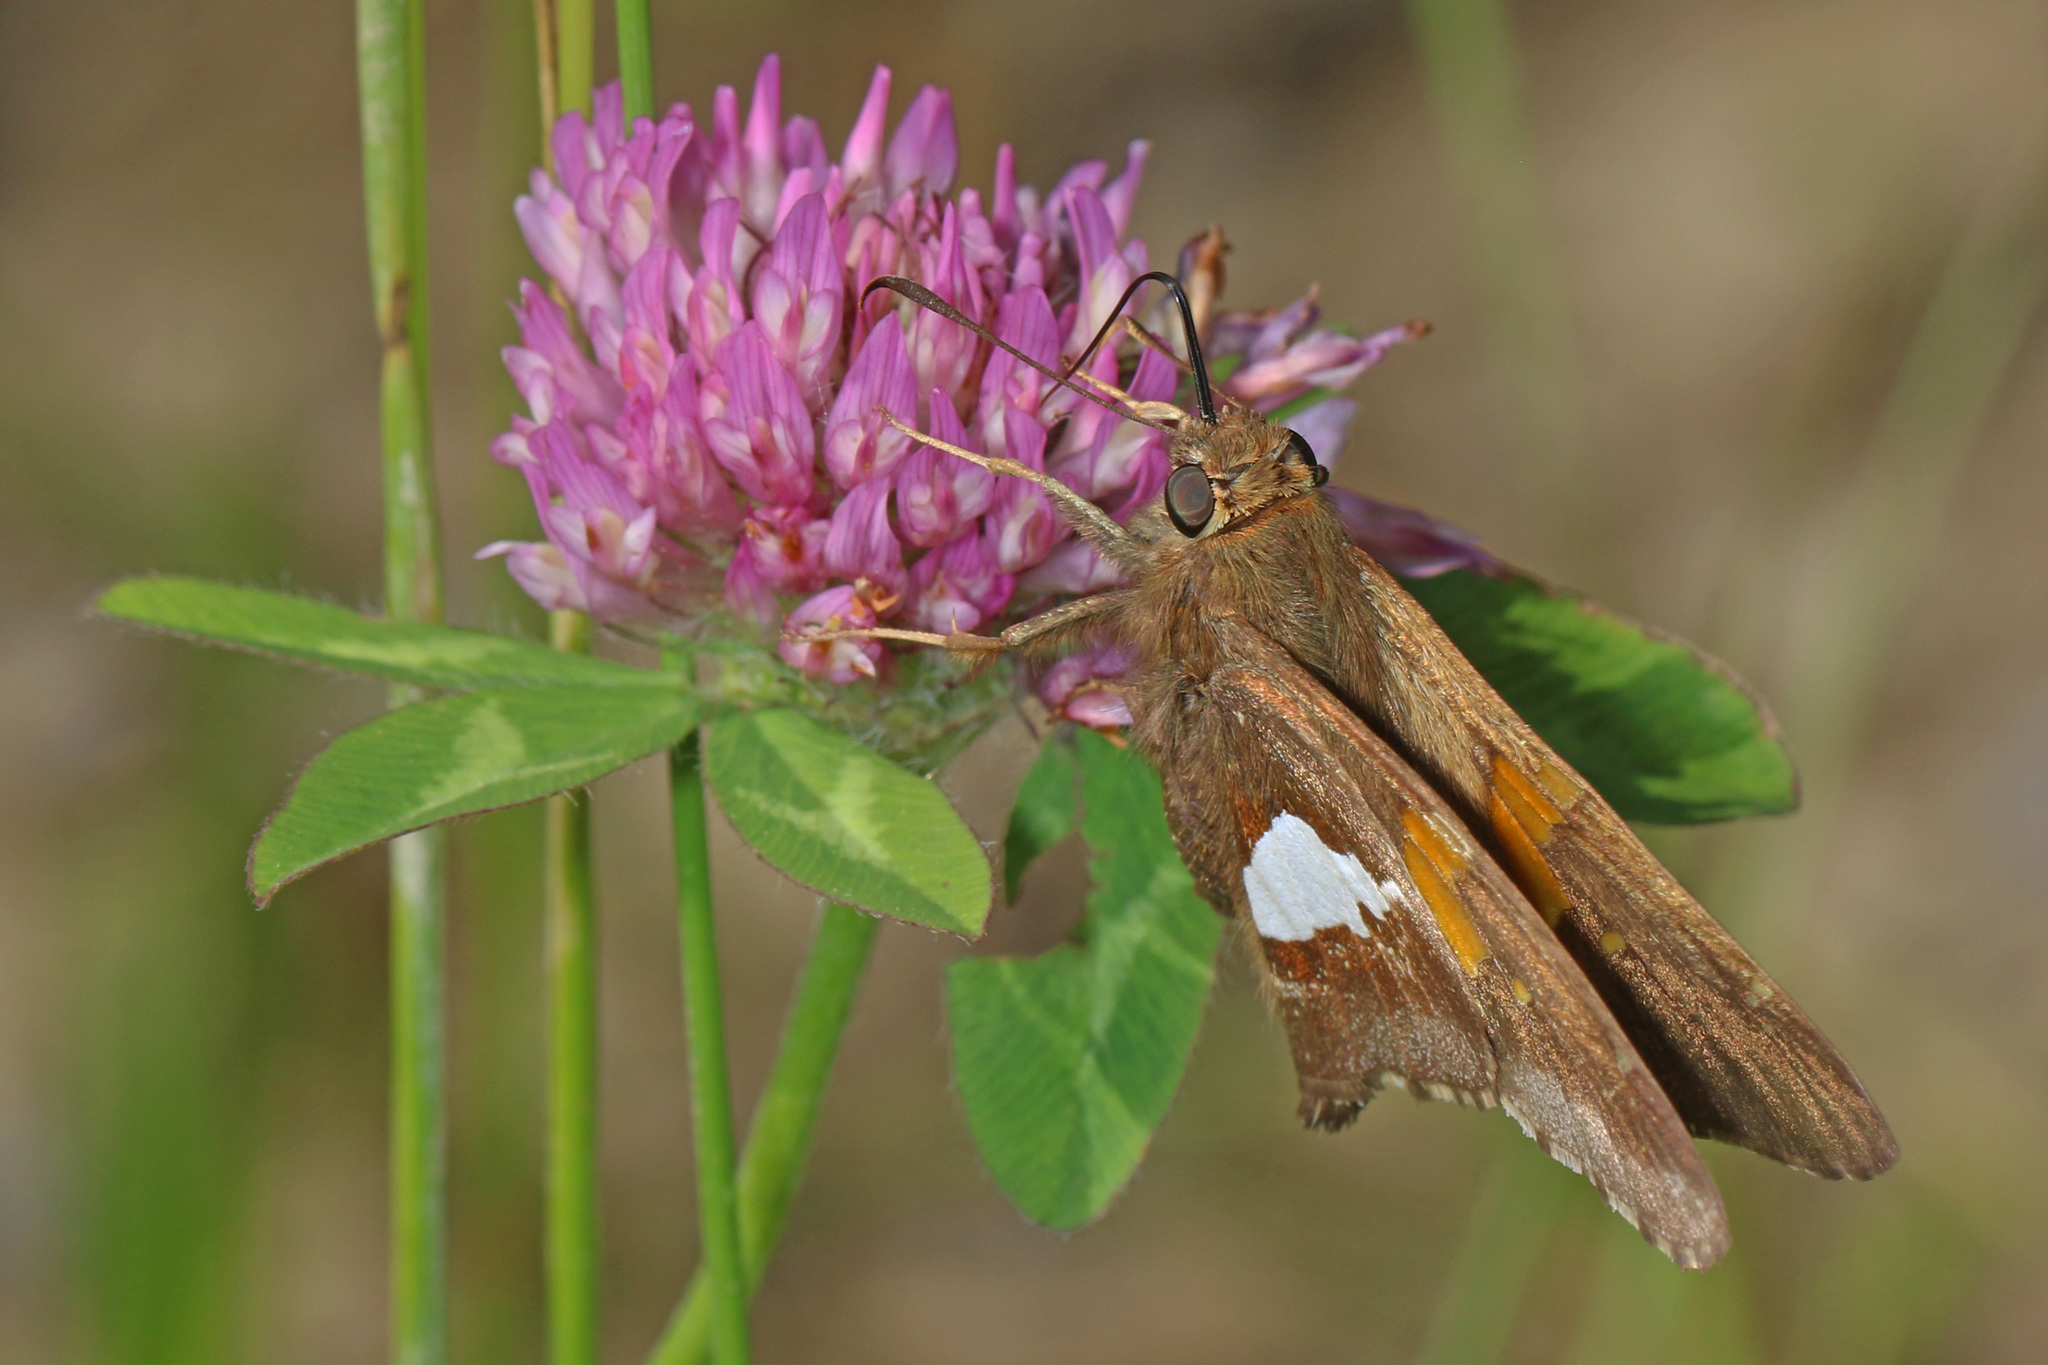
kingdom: Animalia
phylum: Arthropoda
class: Insecta
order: Lepidoptera
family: Hesperiidae
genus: Epargyreus
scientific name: Epargyreus clarus
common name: Silver-spotted skipper
